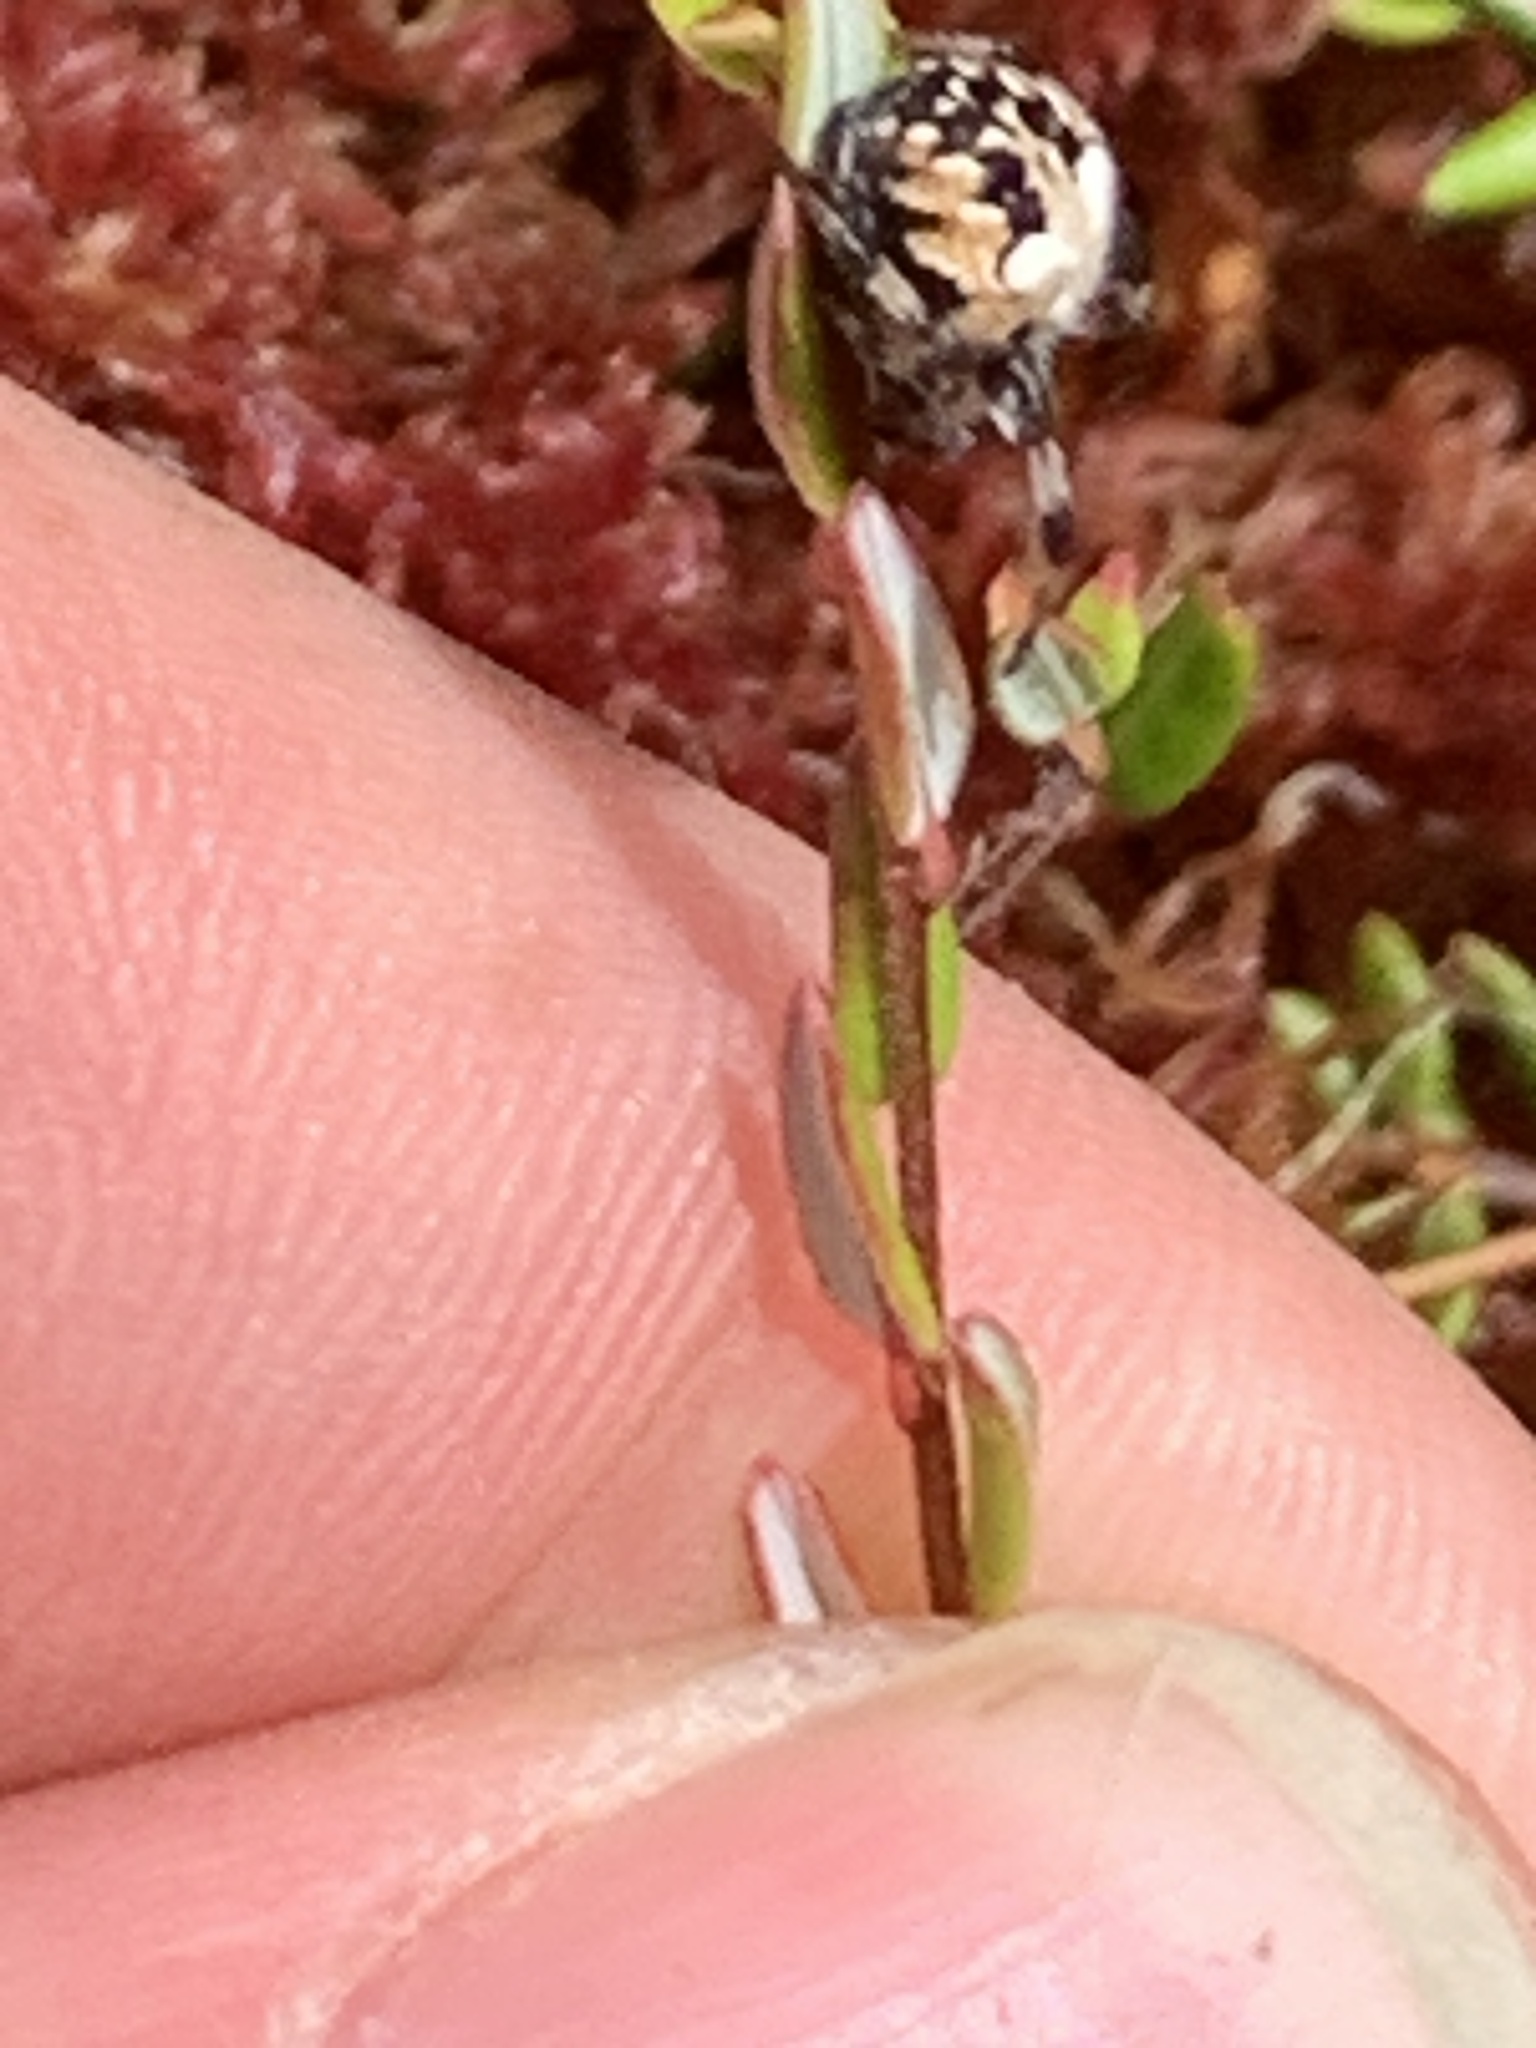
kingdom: Animalia
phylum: Arthropoda
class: Arachnida
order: Araneae
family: Araneidae
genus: Metepeira
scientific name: Metepeira
